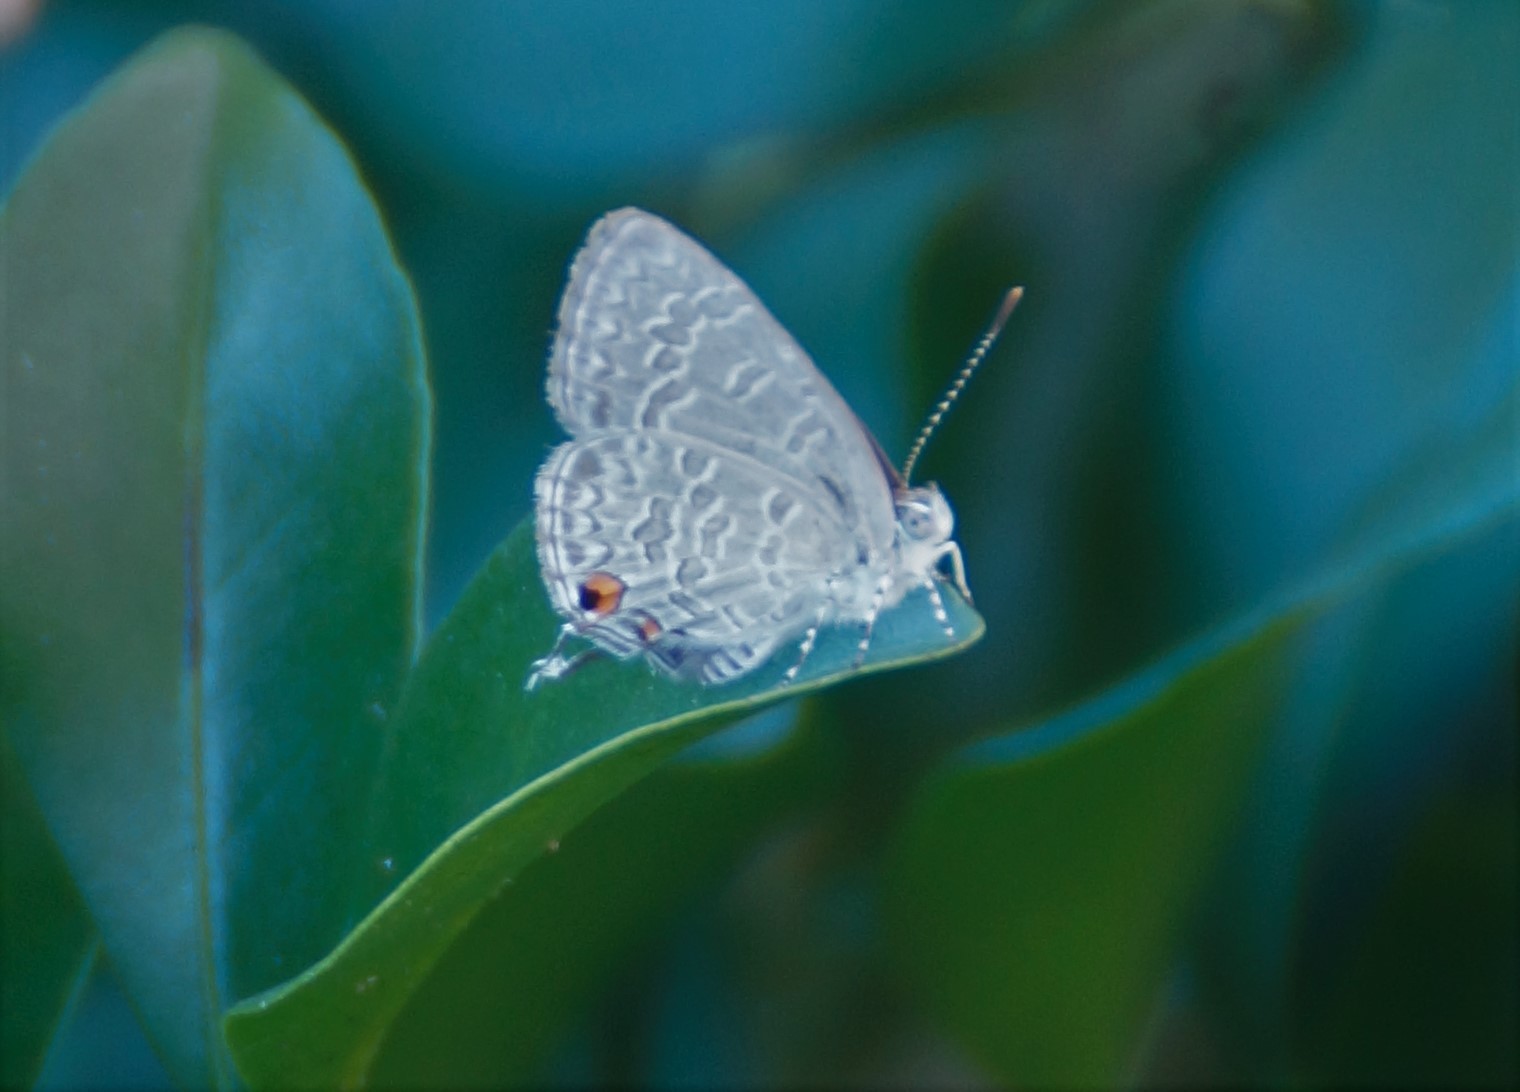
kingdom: Animalia
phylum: Arthropoda
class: Insecta
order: Lepidoptera
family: Lycaenidae
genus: Catopyrops
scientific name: Catopyrops florinda
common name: Speckled line-blue
